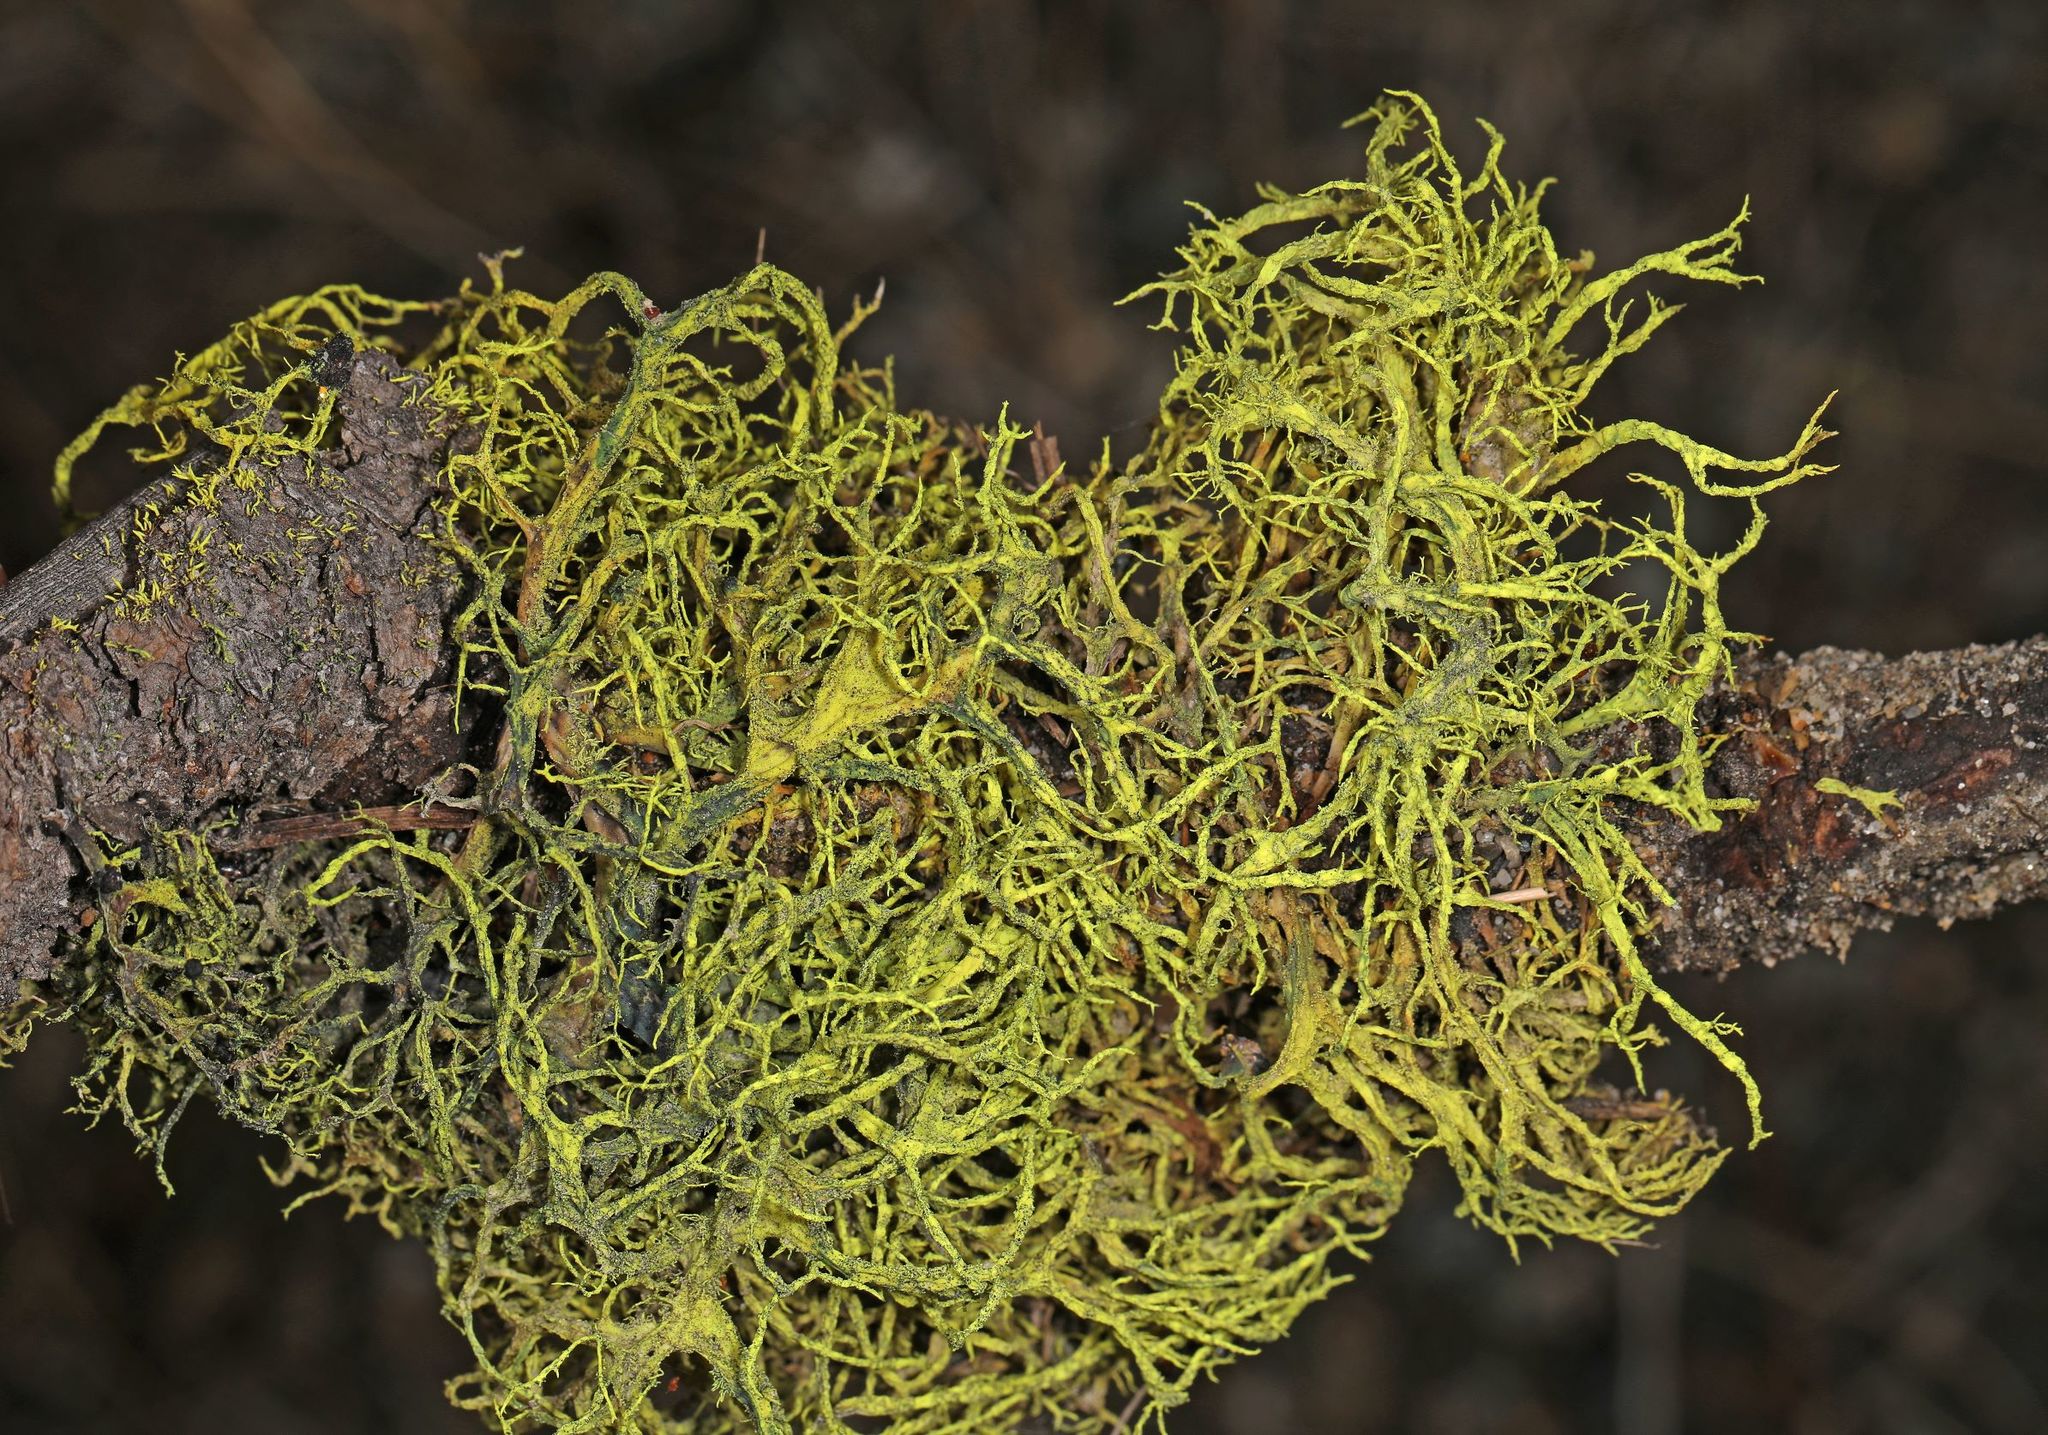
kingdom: Fungi
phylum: Ascomycota
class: Lecanoromycetes
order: Lecanorales
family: Parmeliaceae
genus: Letharia
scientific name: Letharia vulpina
